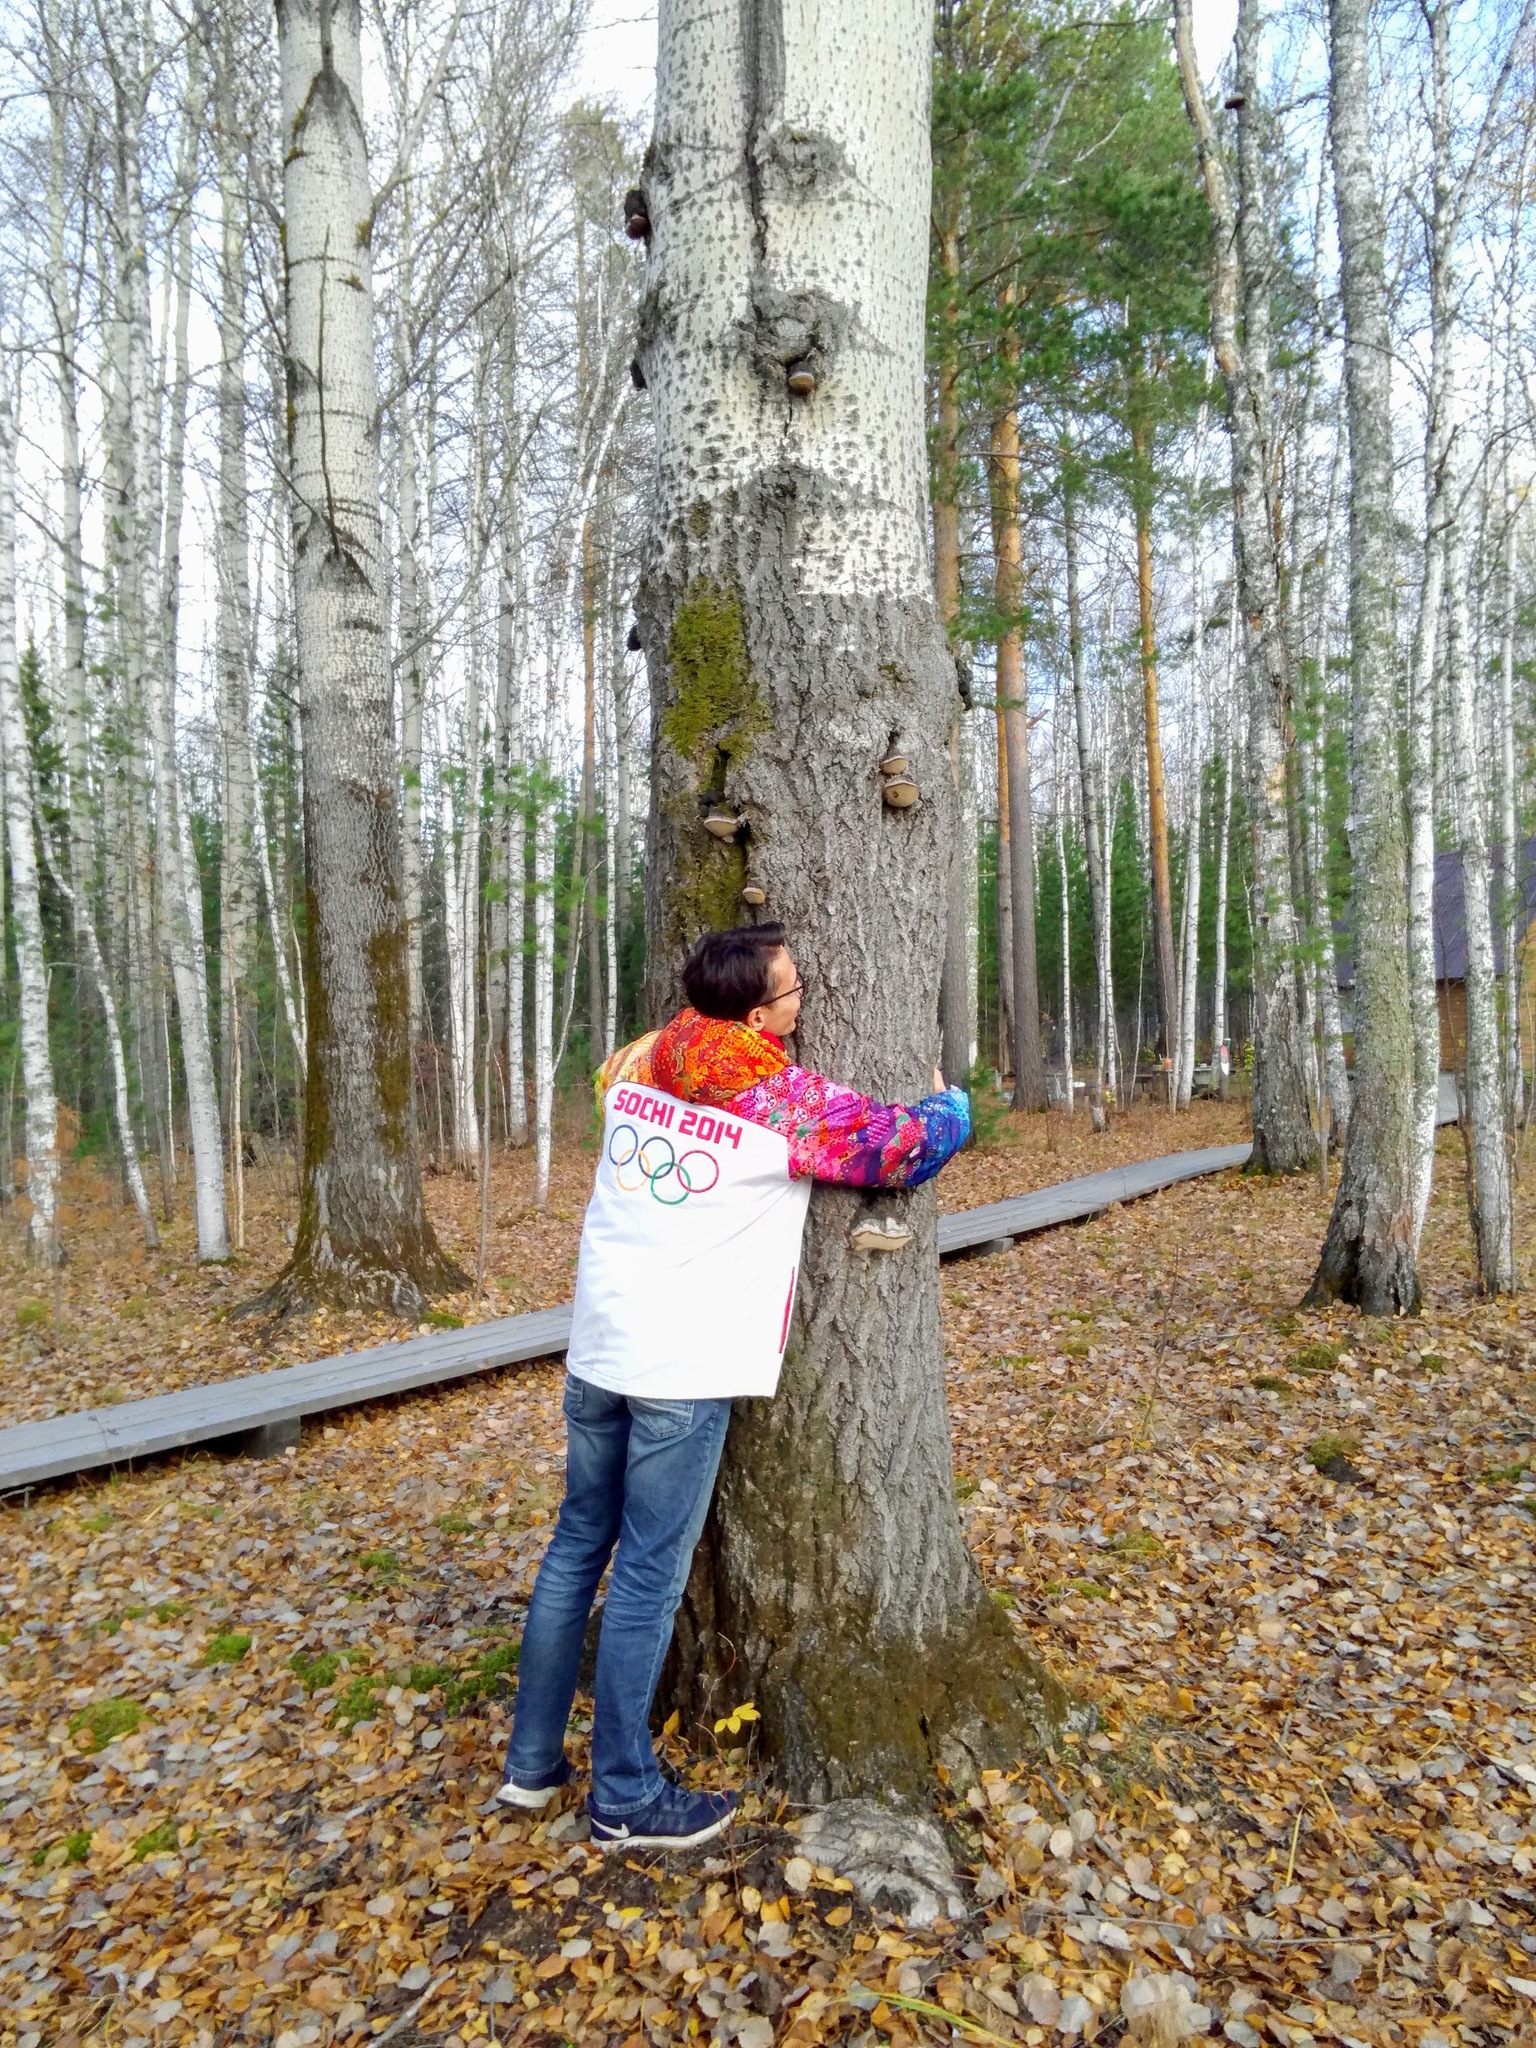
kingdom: Fungi
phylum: Basidiomycota
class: Agaricomycetes
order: Hymenochaetales
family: Hymenochaetaceae
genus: Phellinus
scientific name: Phellinus tremulae
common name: Aspen bracket
